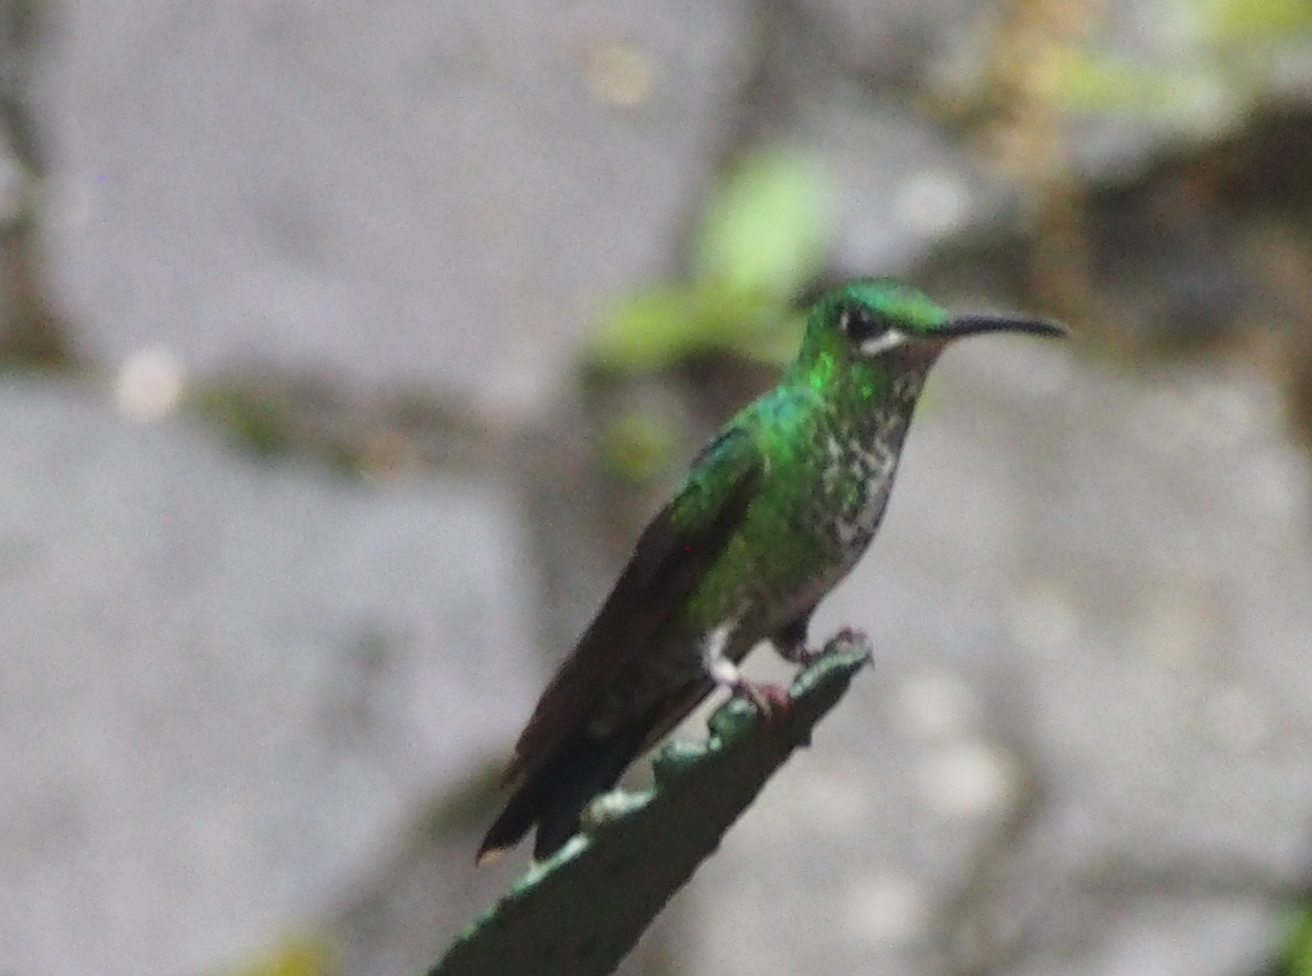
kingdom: Animalia
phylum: Chordata
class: Aves
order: Apodiformes
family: Trochilidae
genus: Heliodoxa
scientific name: Heliodoxa jacula
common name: Green-crowned brilliant
